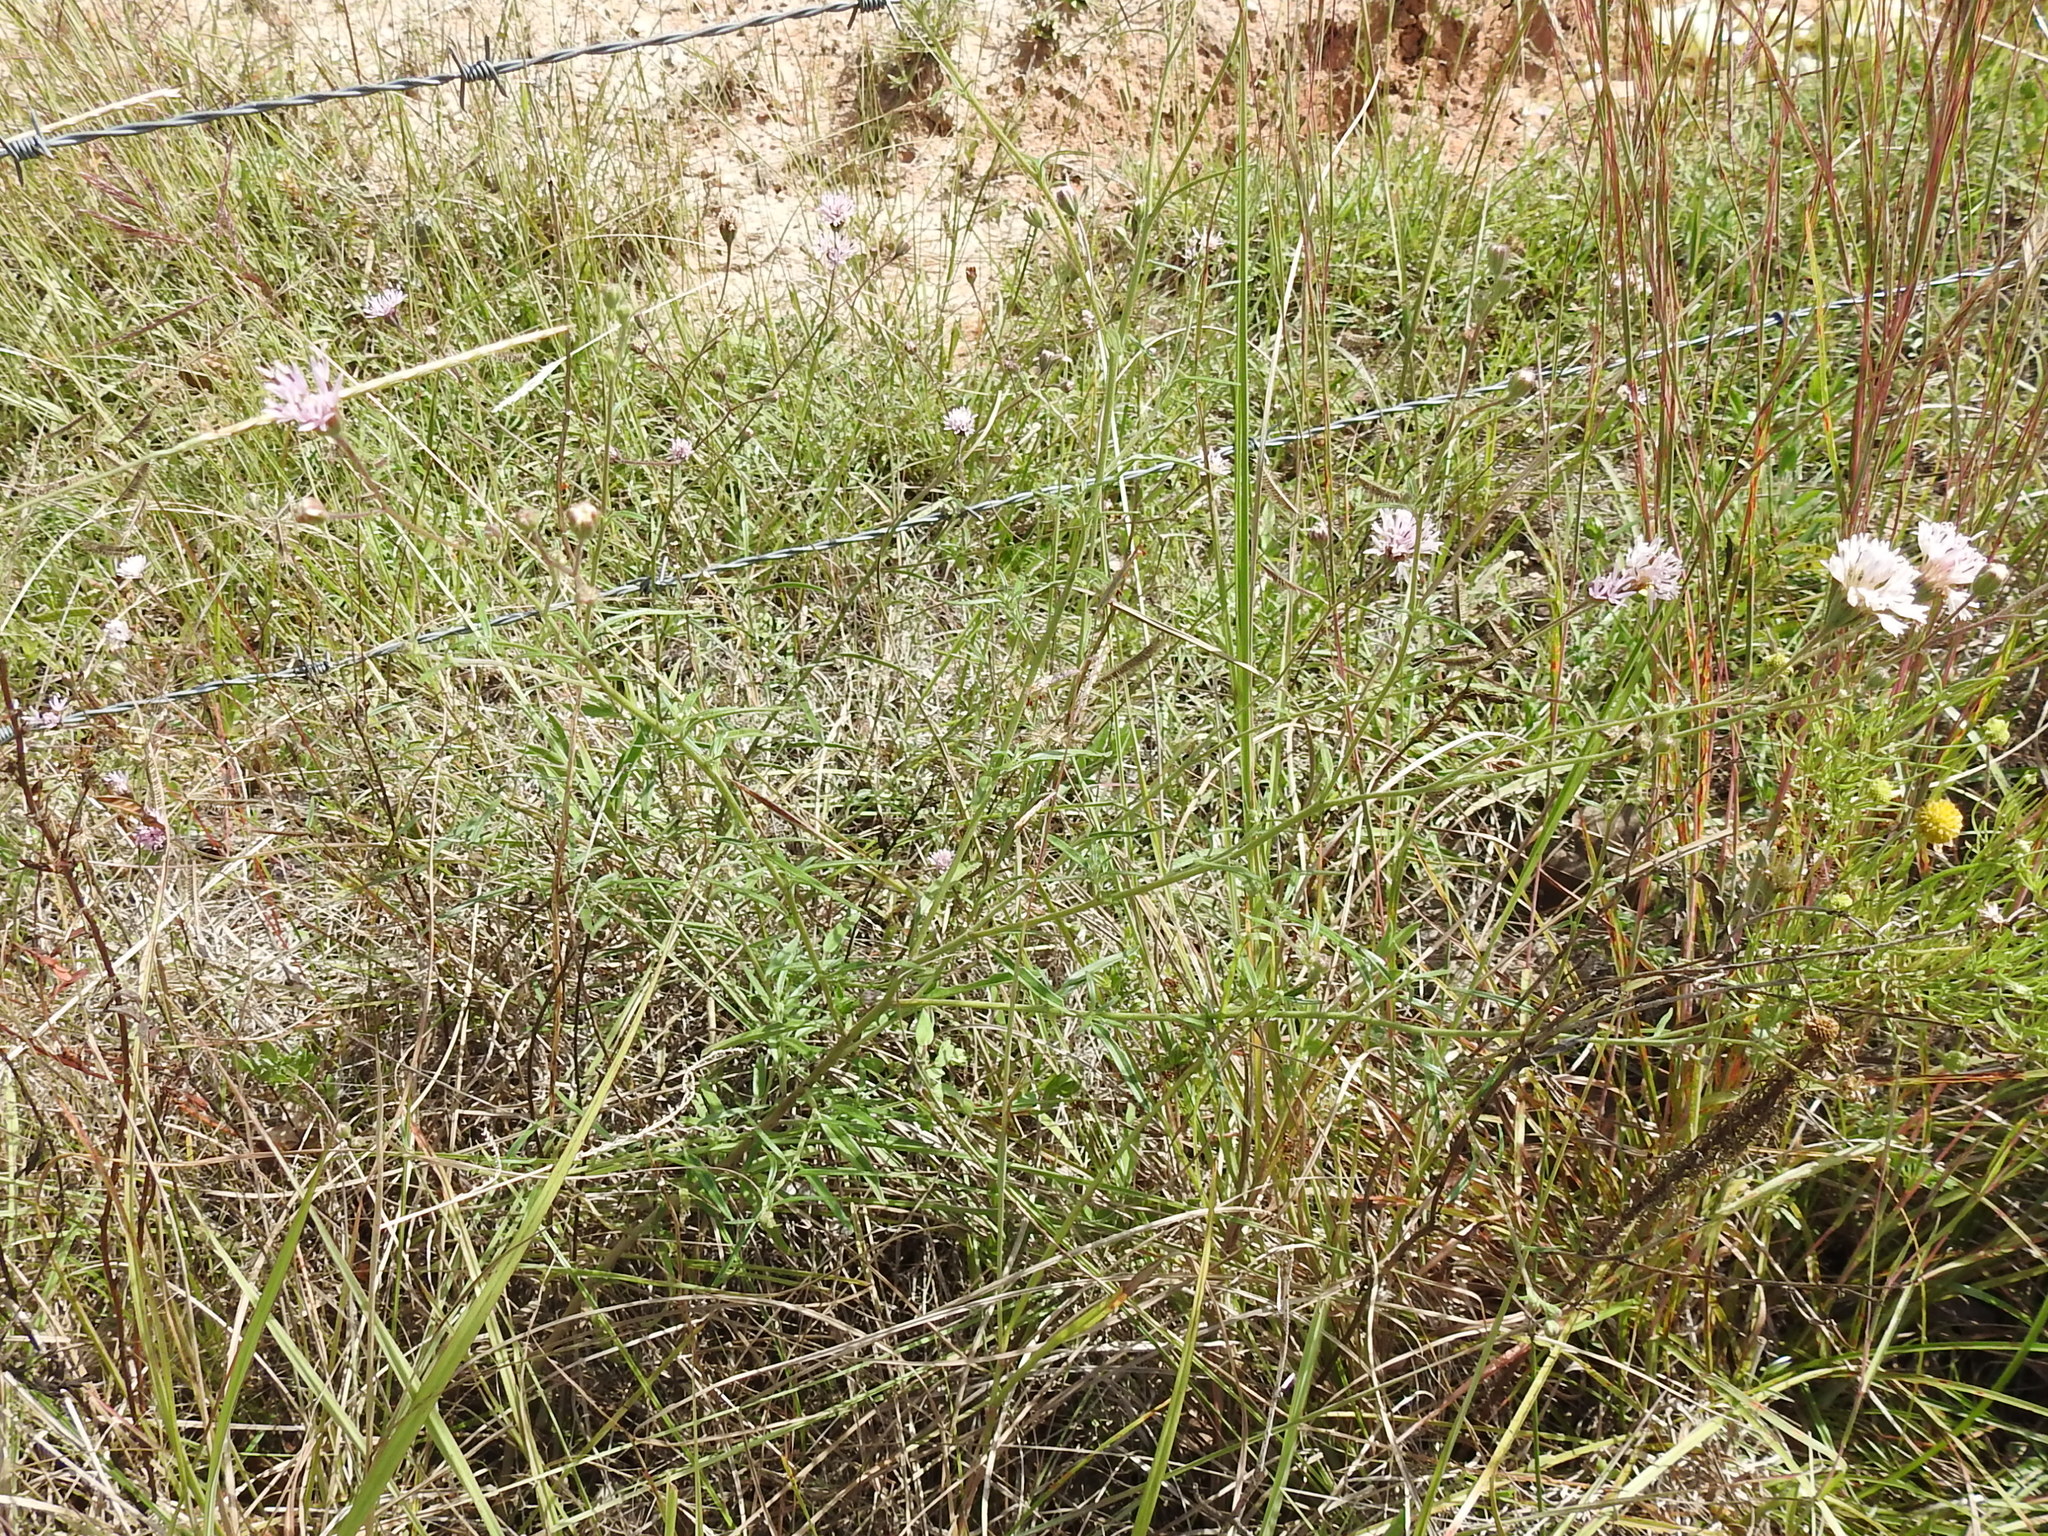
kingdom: Plantae
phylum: Tracheophyta
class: Magnoliopsida
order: Asterales
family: Asteraceae
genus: Palafoxia
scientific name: Palafoxia rosea
